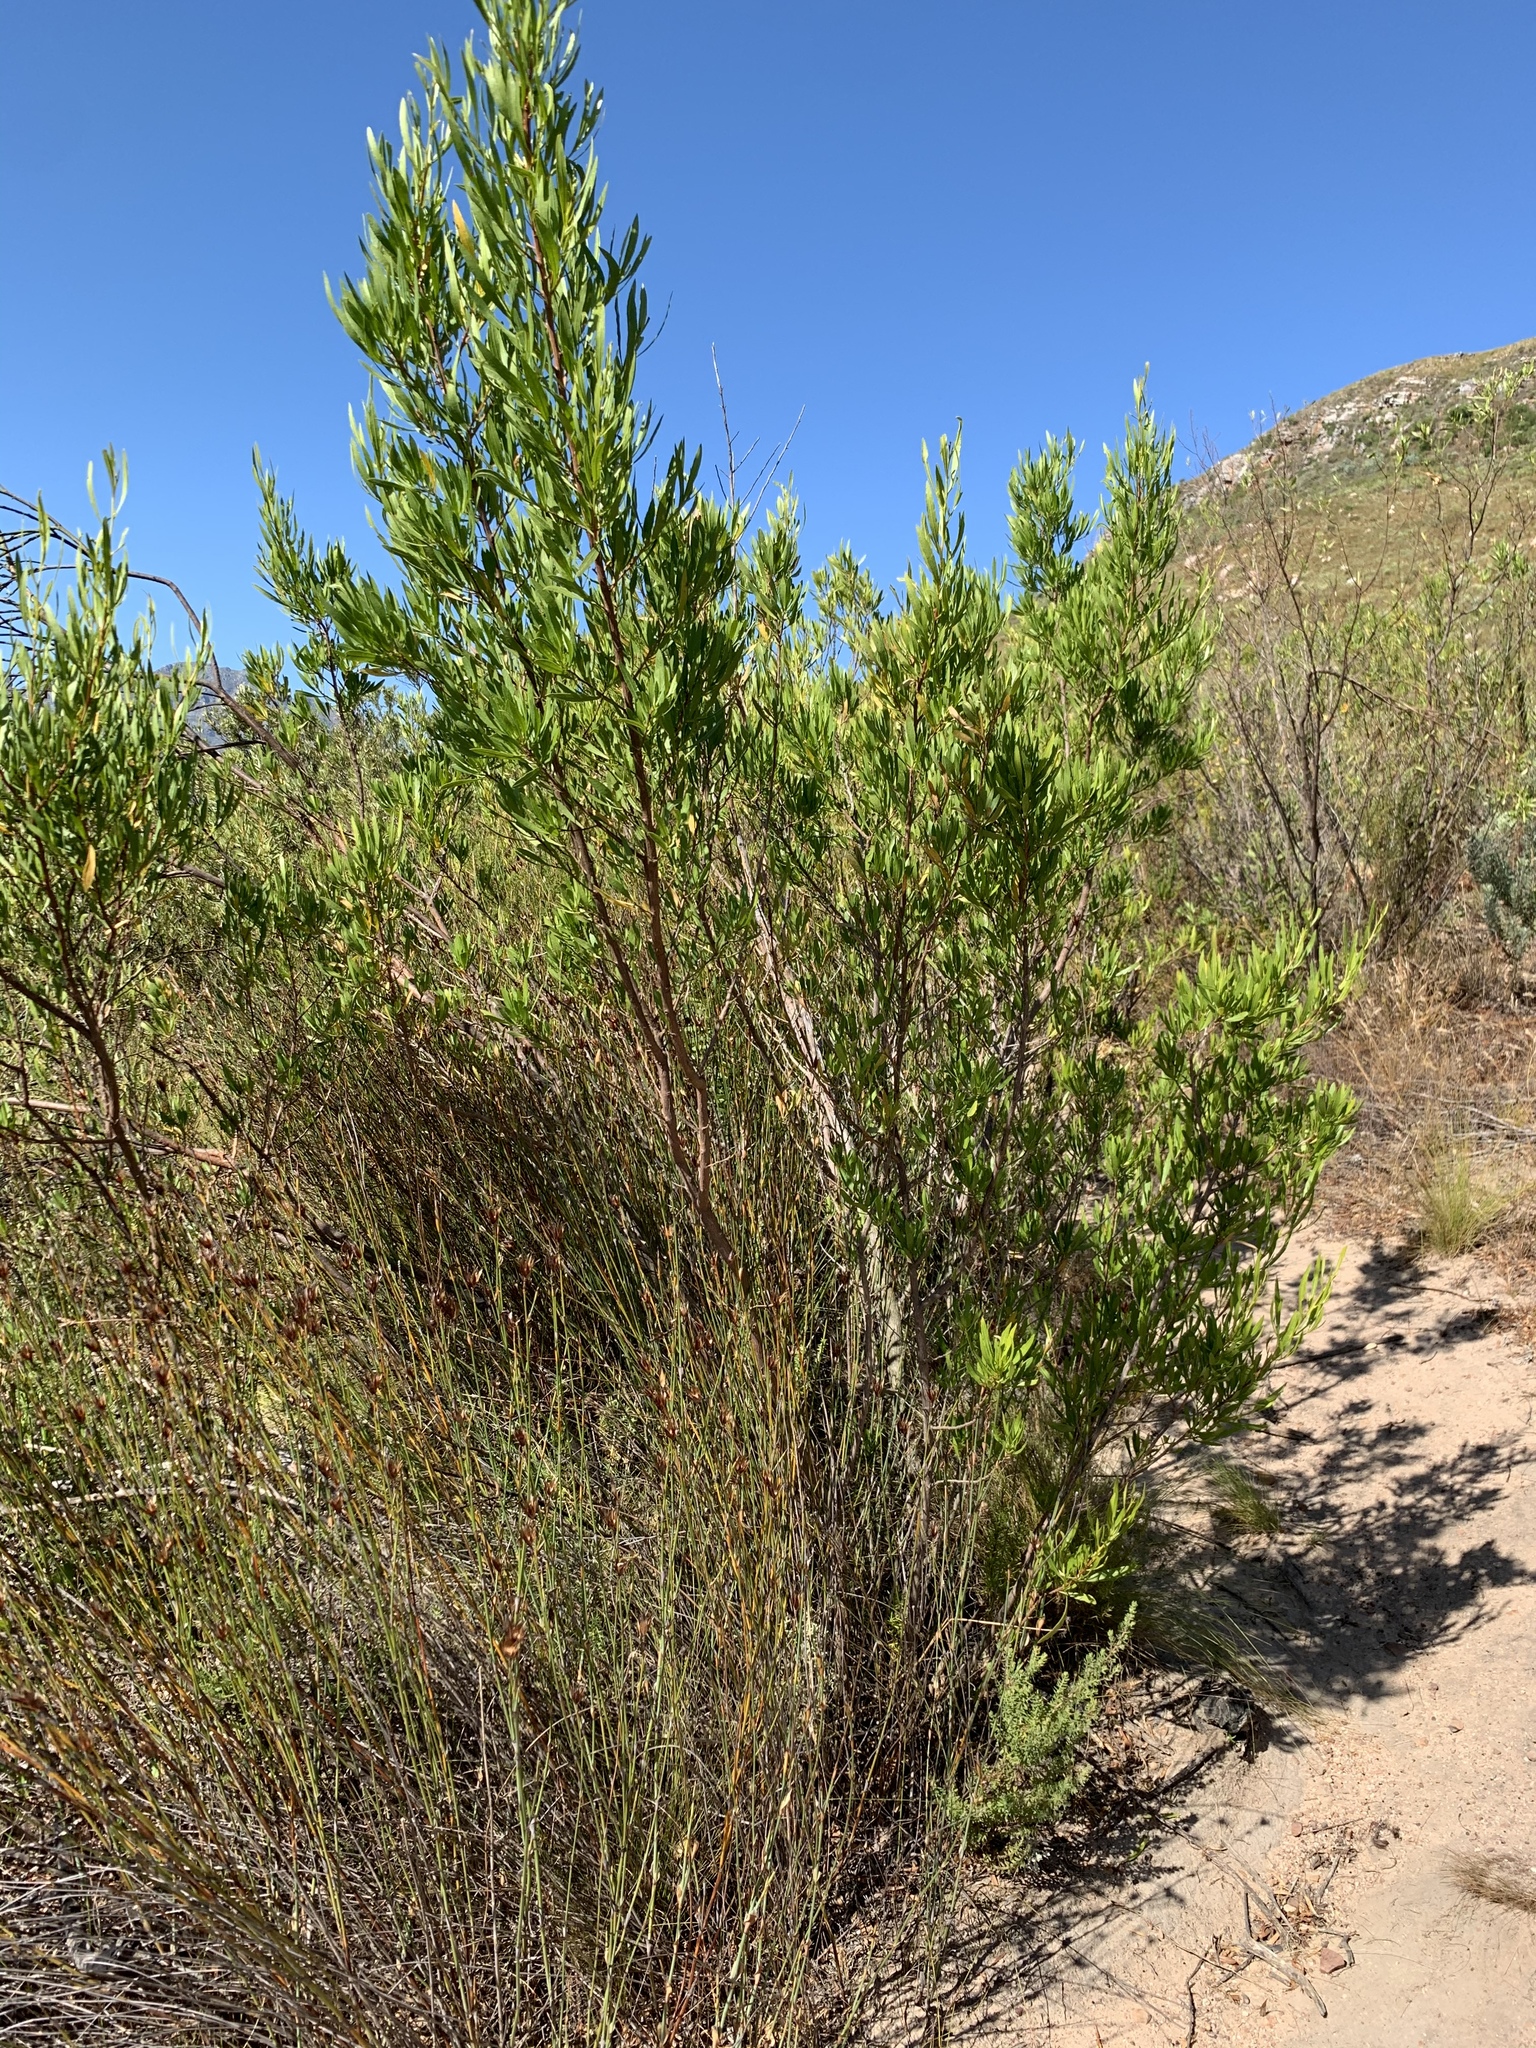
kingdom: Plantae
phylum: Tracheophyta
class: Magnoliopsida
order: Sapindales
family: Sapindaceae
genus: Dodonaea
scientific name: Dodonaea viscosa
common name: Hopbush
